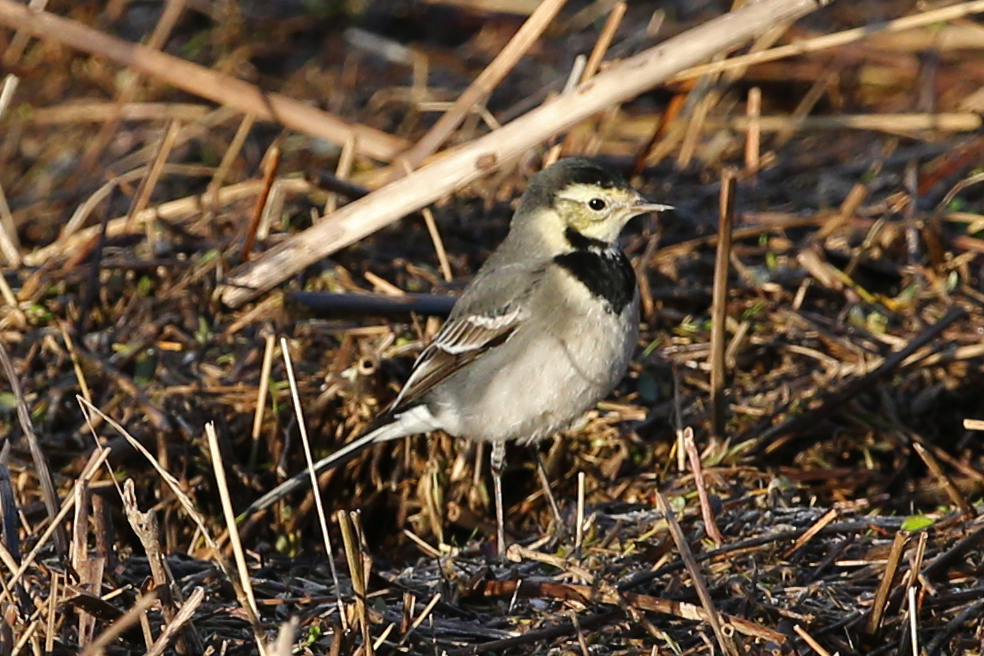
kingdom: Animalia
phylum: Chordata
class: Aves
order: Passeriformes
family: Motacillidae
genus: Motacilla
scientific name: Motacilla alba
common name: White wagtail
